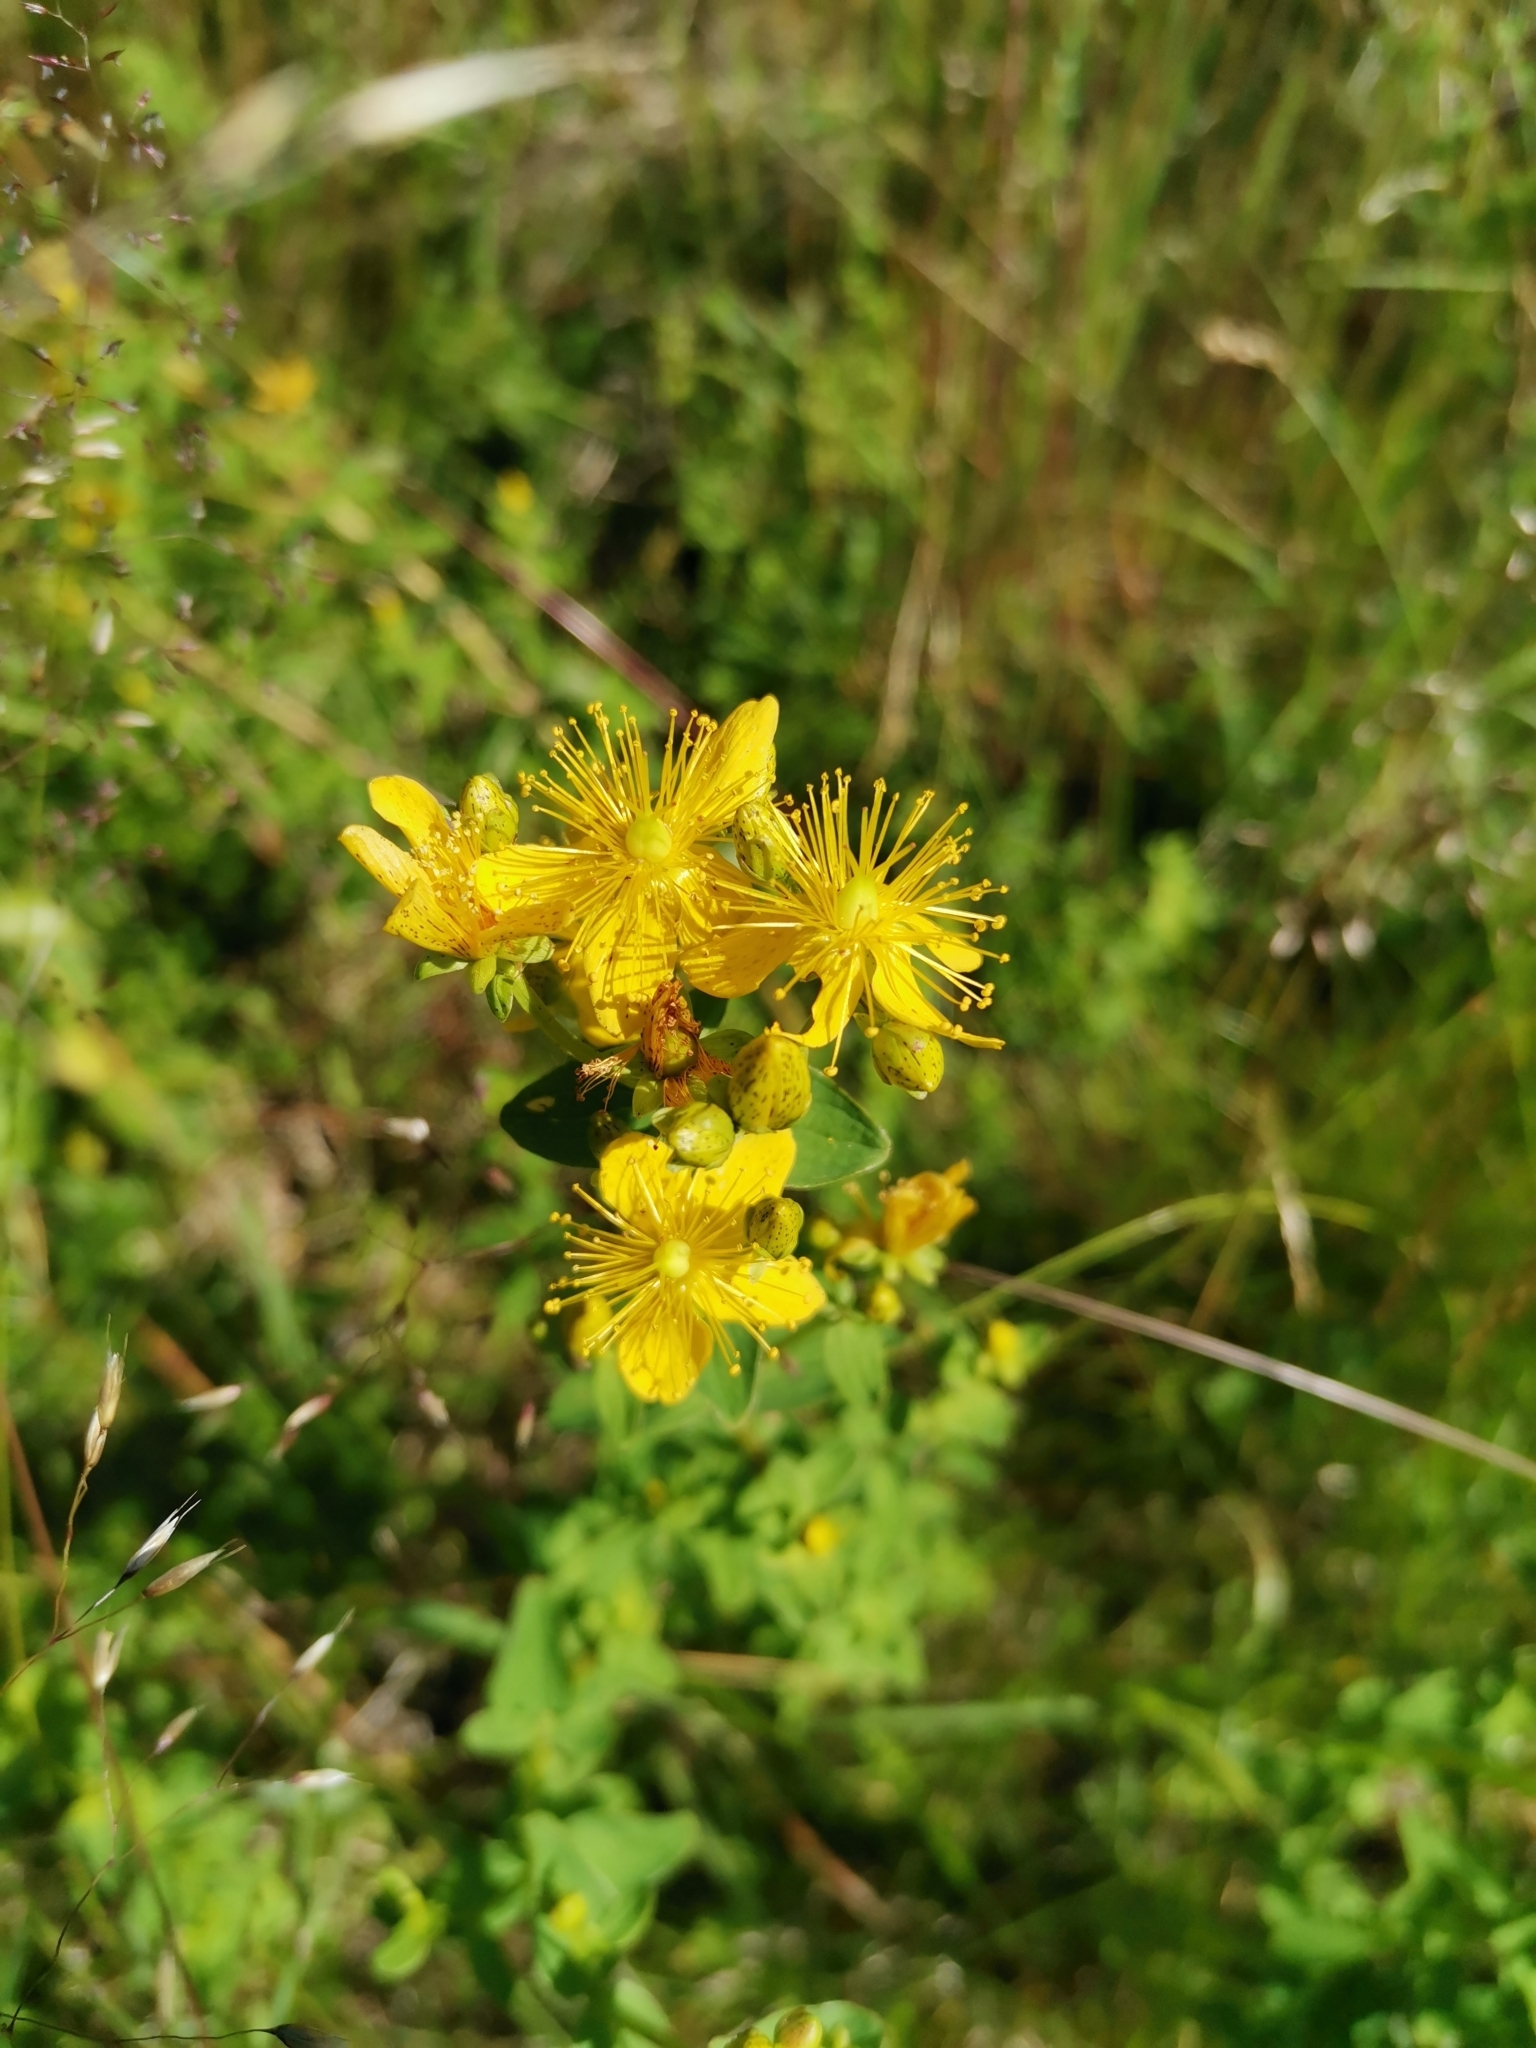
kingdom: Plantae
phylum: Tracheophyta
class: Magnoliopsida
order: Malpighiales
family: Hypericaceae
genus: Hypericum
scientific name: Hypericum maculatum
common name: Imperforate st. john's-wort
